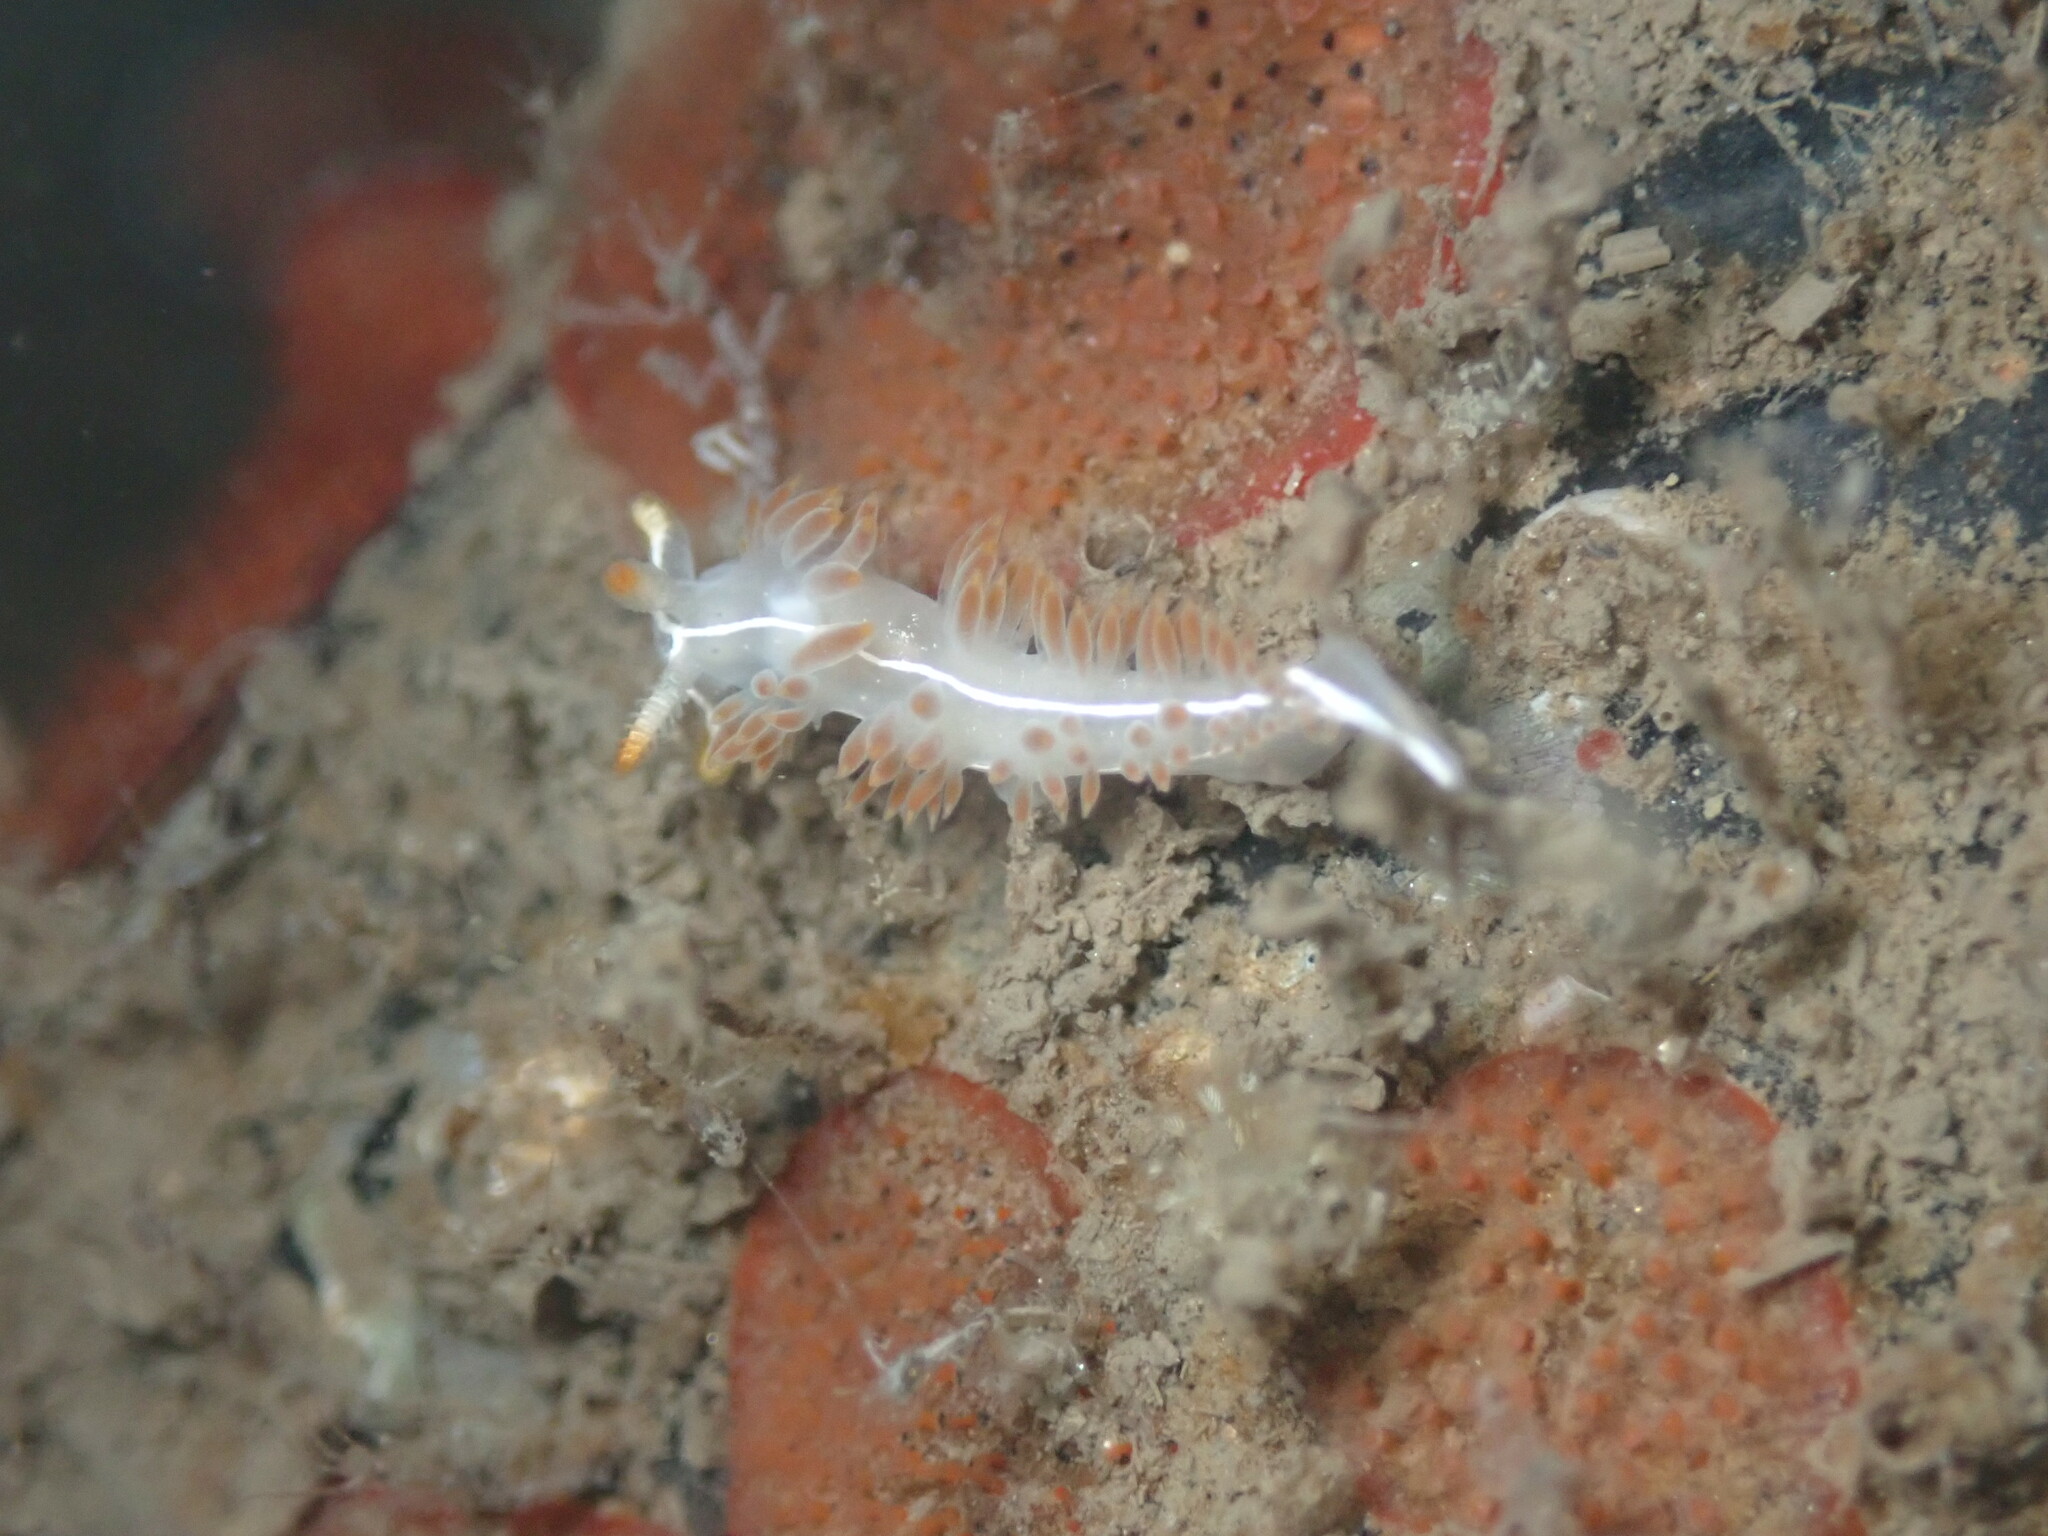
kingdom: Animalia
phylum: Mollusca
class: Gastropoda
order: Nudibranchia
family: Coryphellidae
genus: Coryphella
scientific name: Coryphella trilineata
